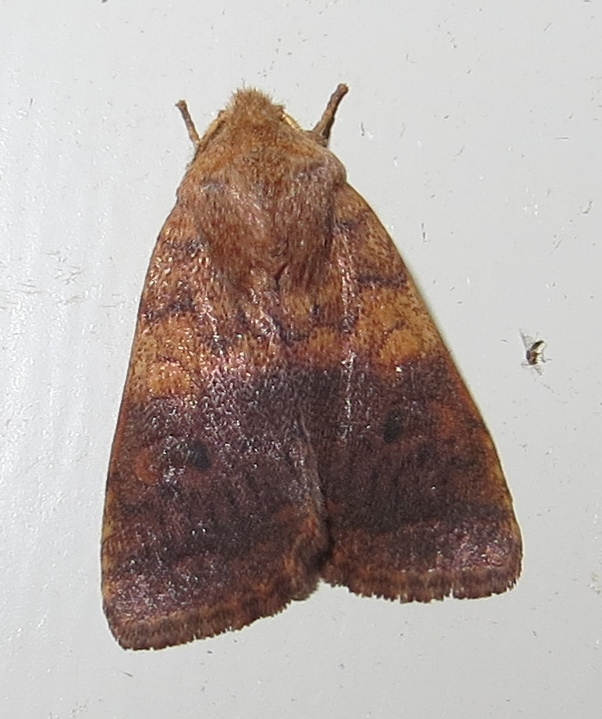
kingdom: Animalia
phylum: Arthropoda
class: Insecta
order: Lepidoptera
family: Noctuidae
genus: Agrochola
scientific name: Agrochola bicolorago
